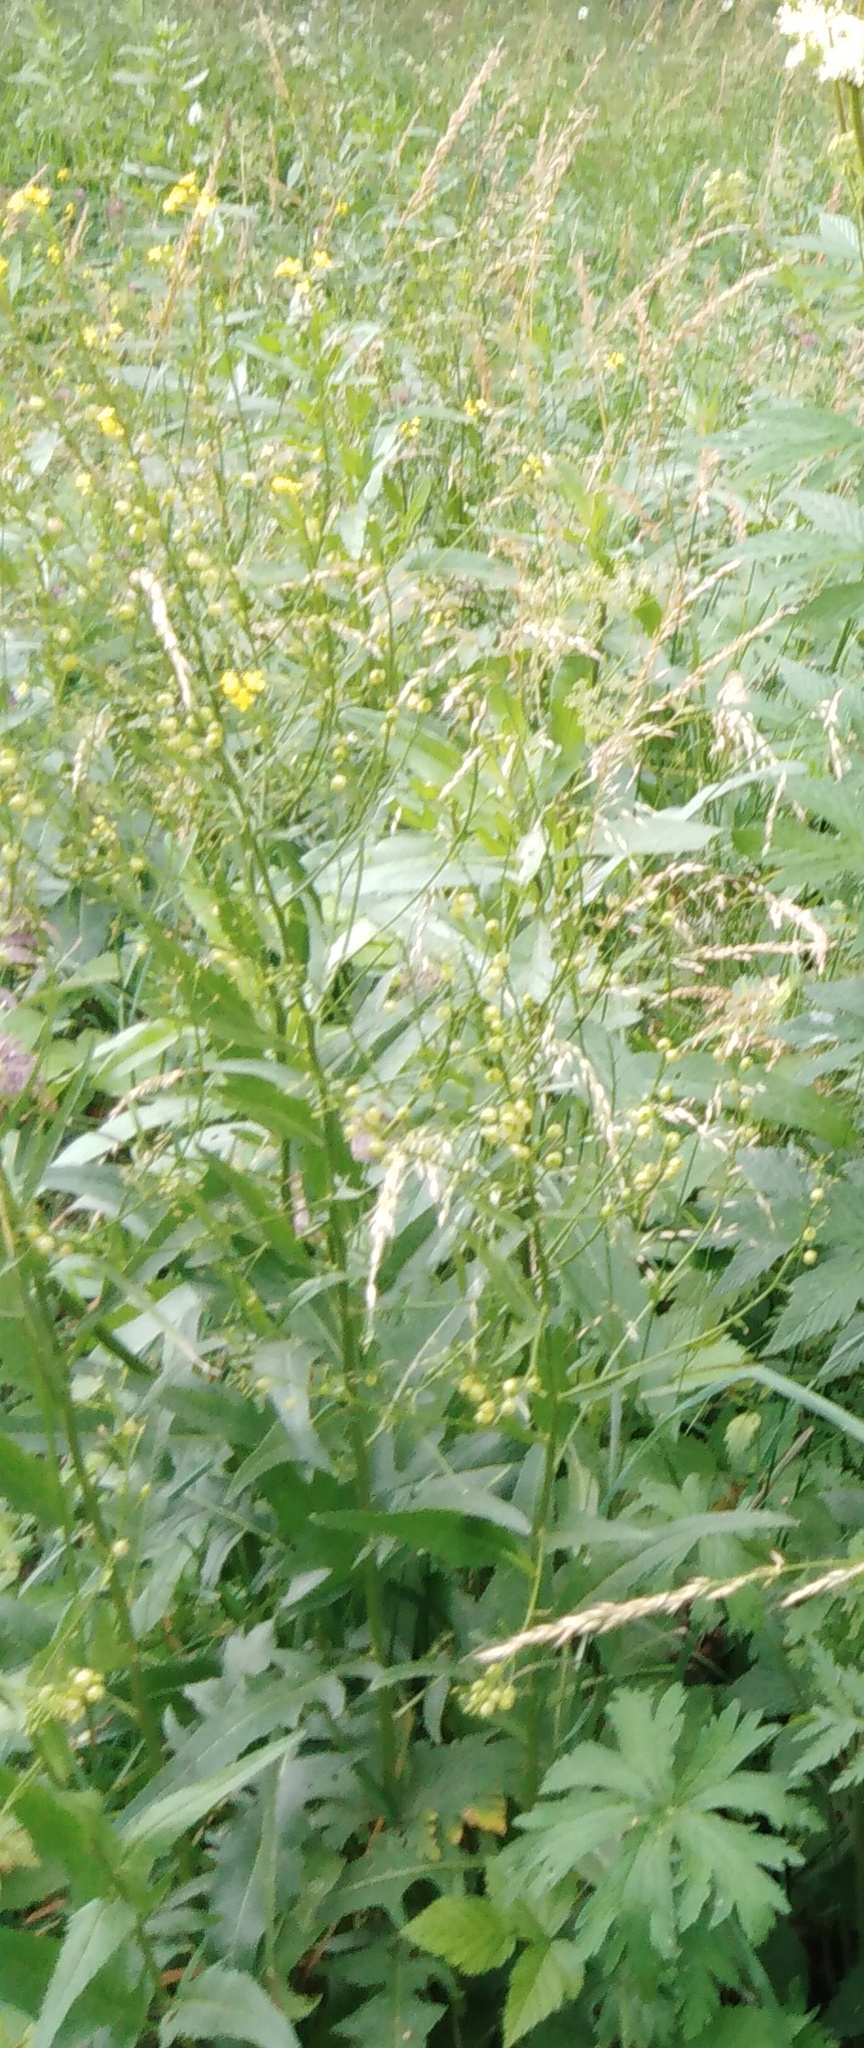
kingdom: Plantae
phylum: Tracheophyta
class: Magnoliopsida
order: Brassicales
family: Brassicaceae
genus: Bunias
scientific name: Bunias orientalis
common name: Warty-cabbage
